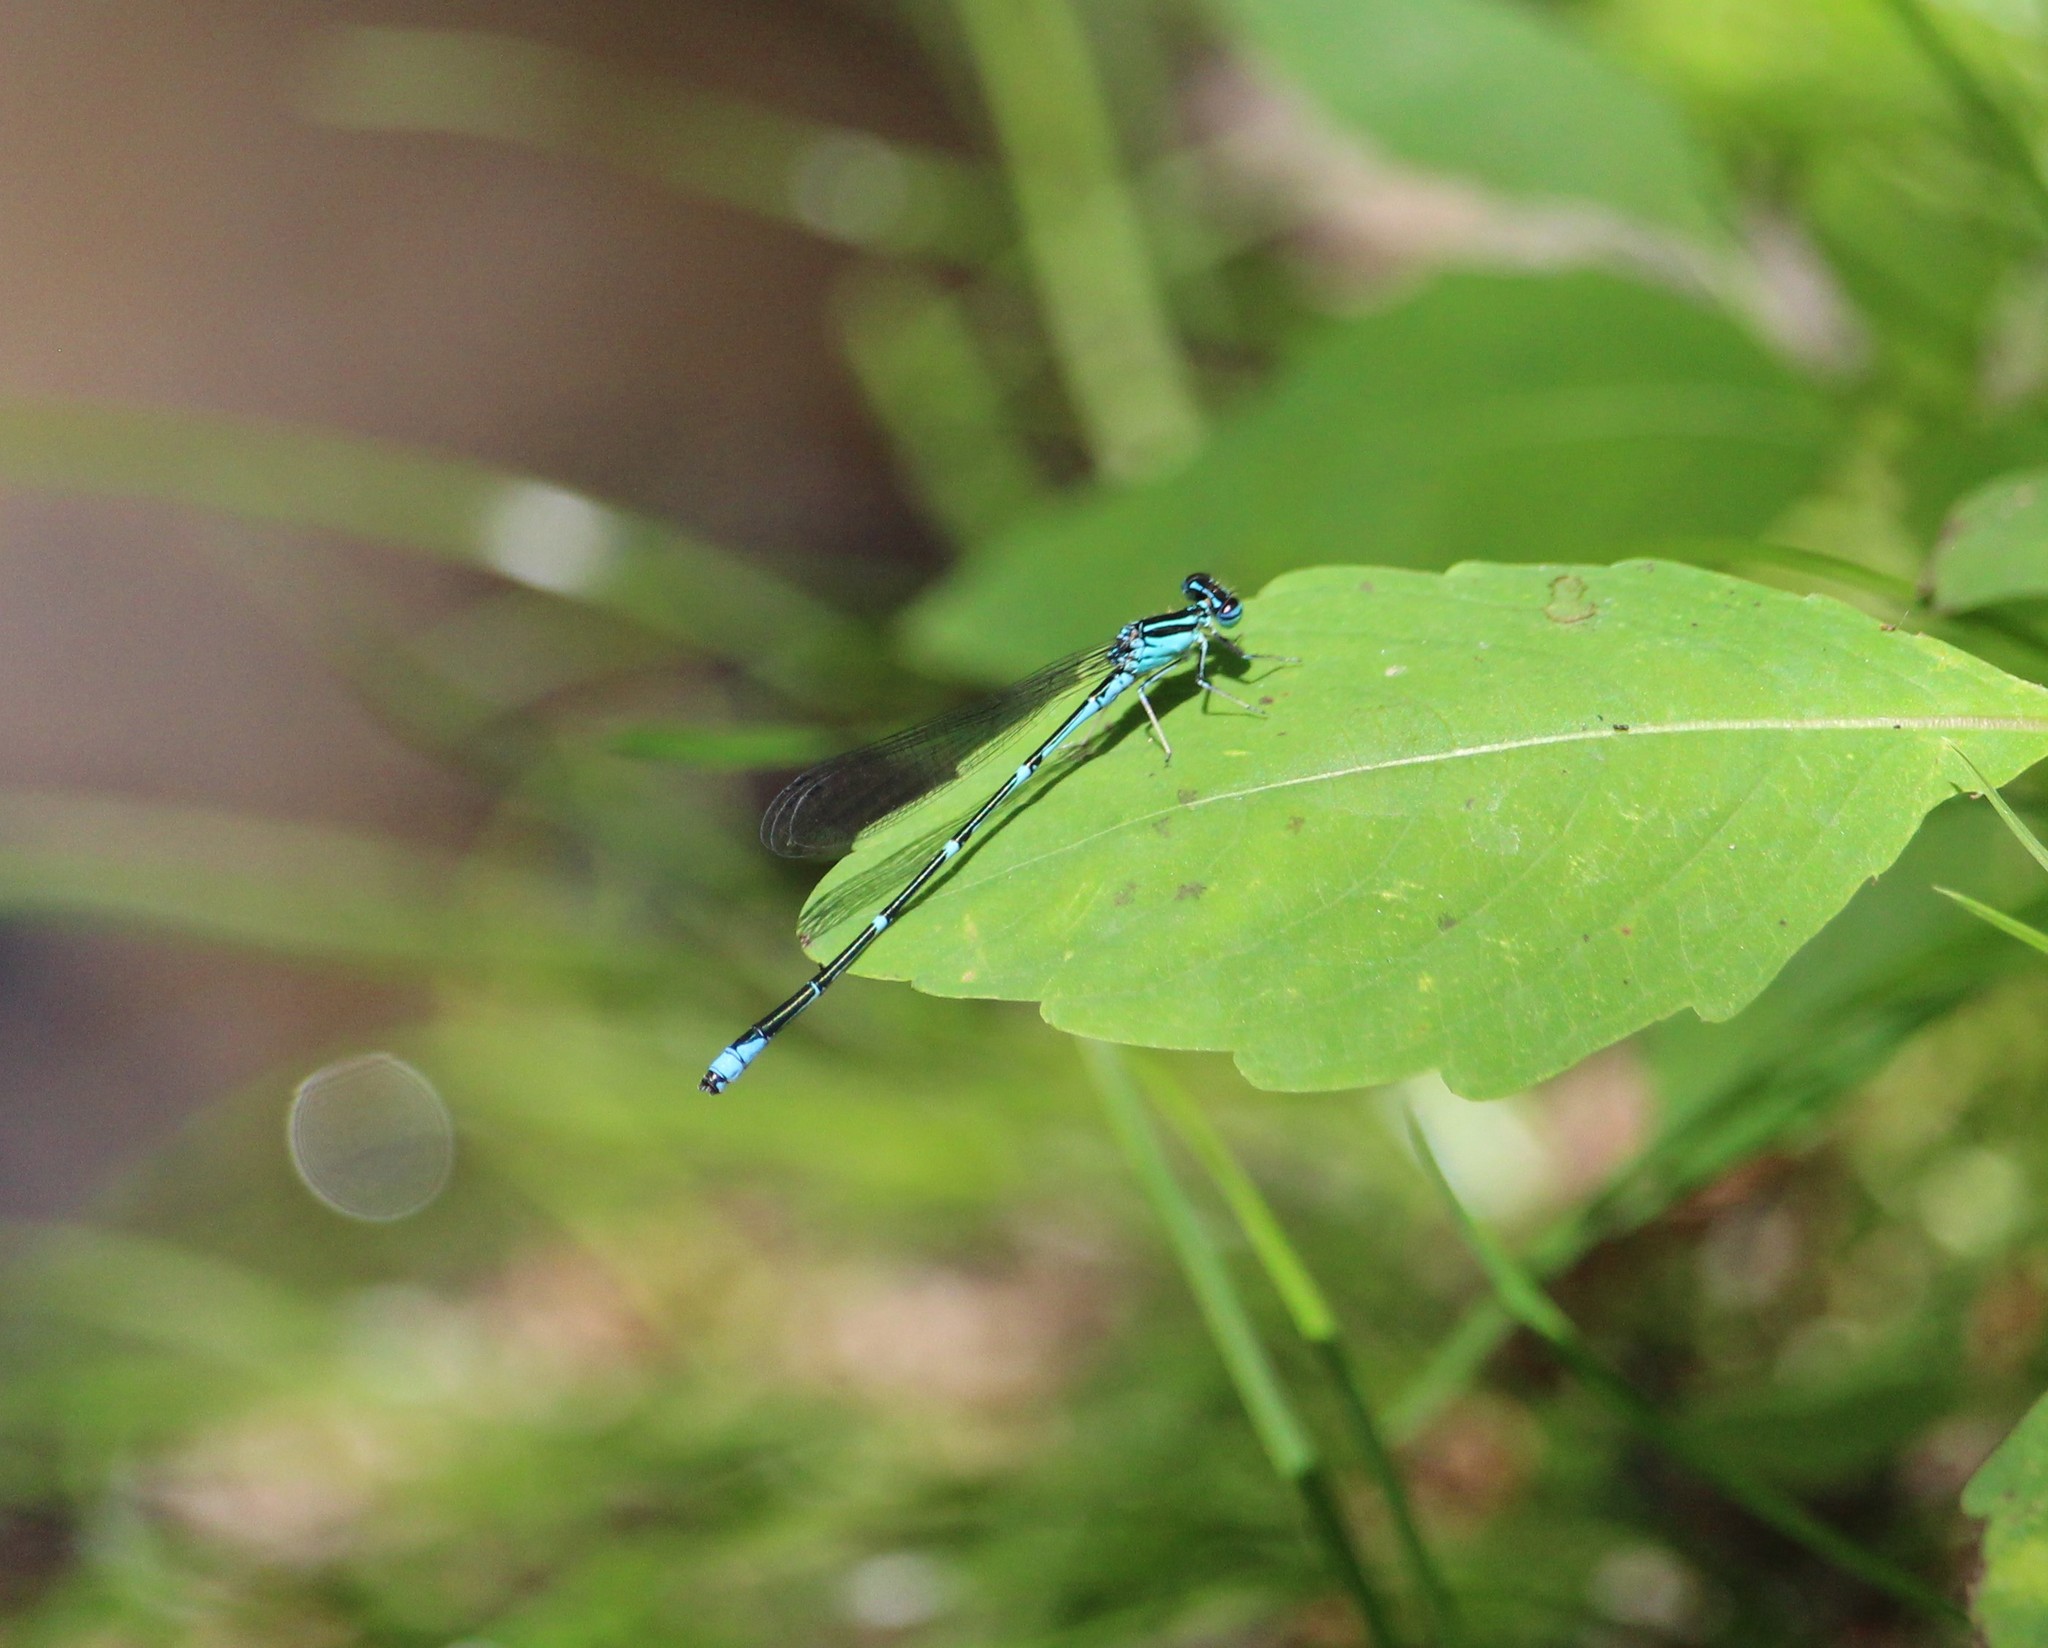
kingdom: Animalia
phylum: Arthropoda
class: Insecta
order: Odonata
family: Coenagrionidae
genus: Enallagma
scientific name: Enallagma exsulans
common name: Stream bluet
